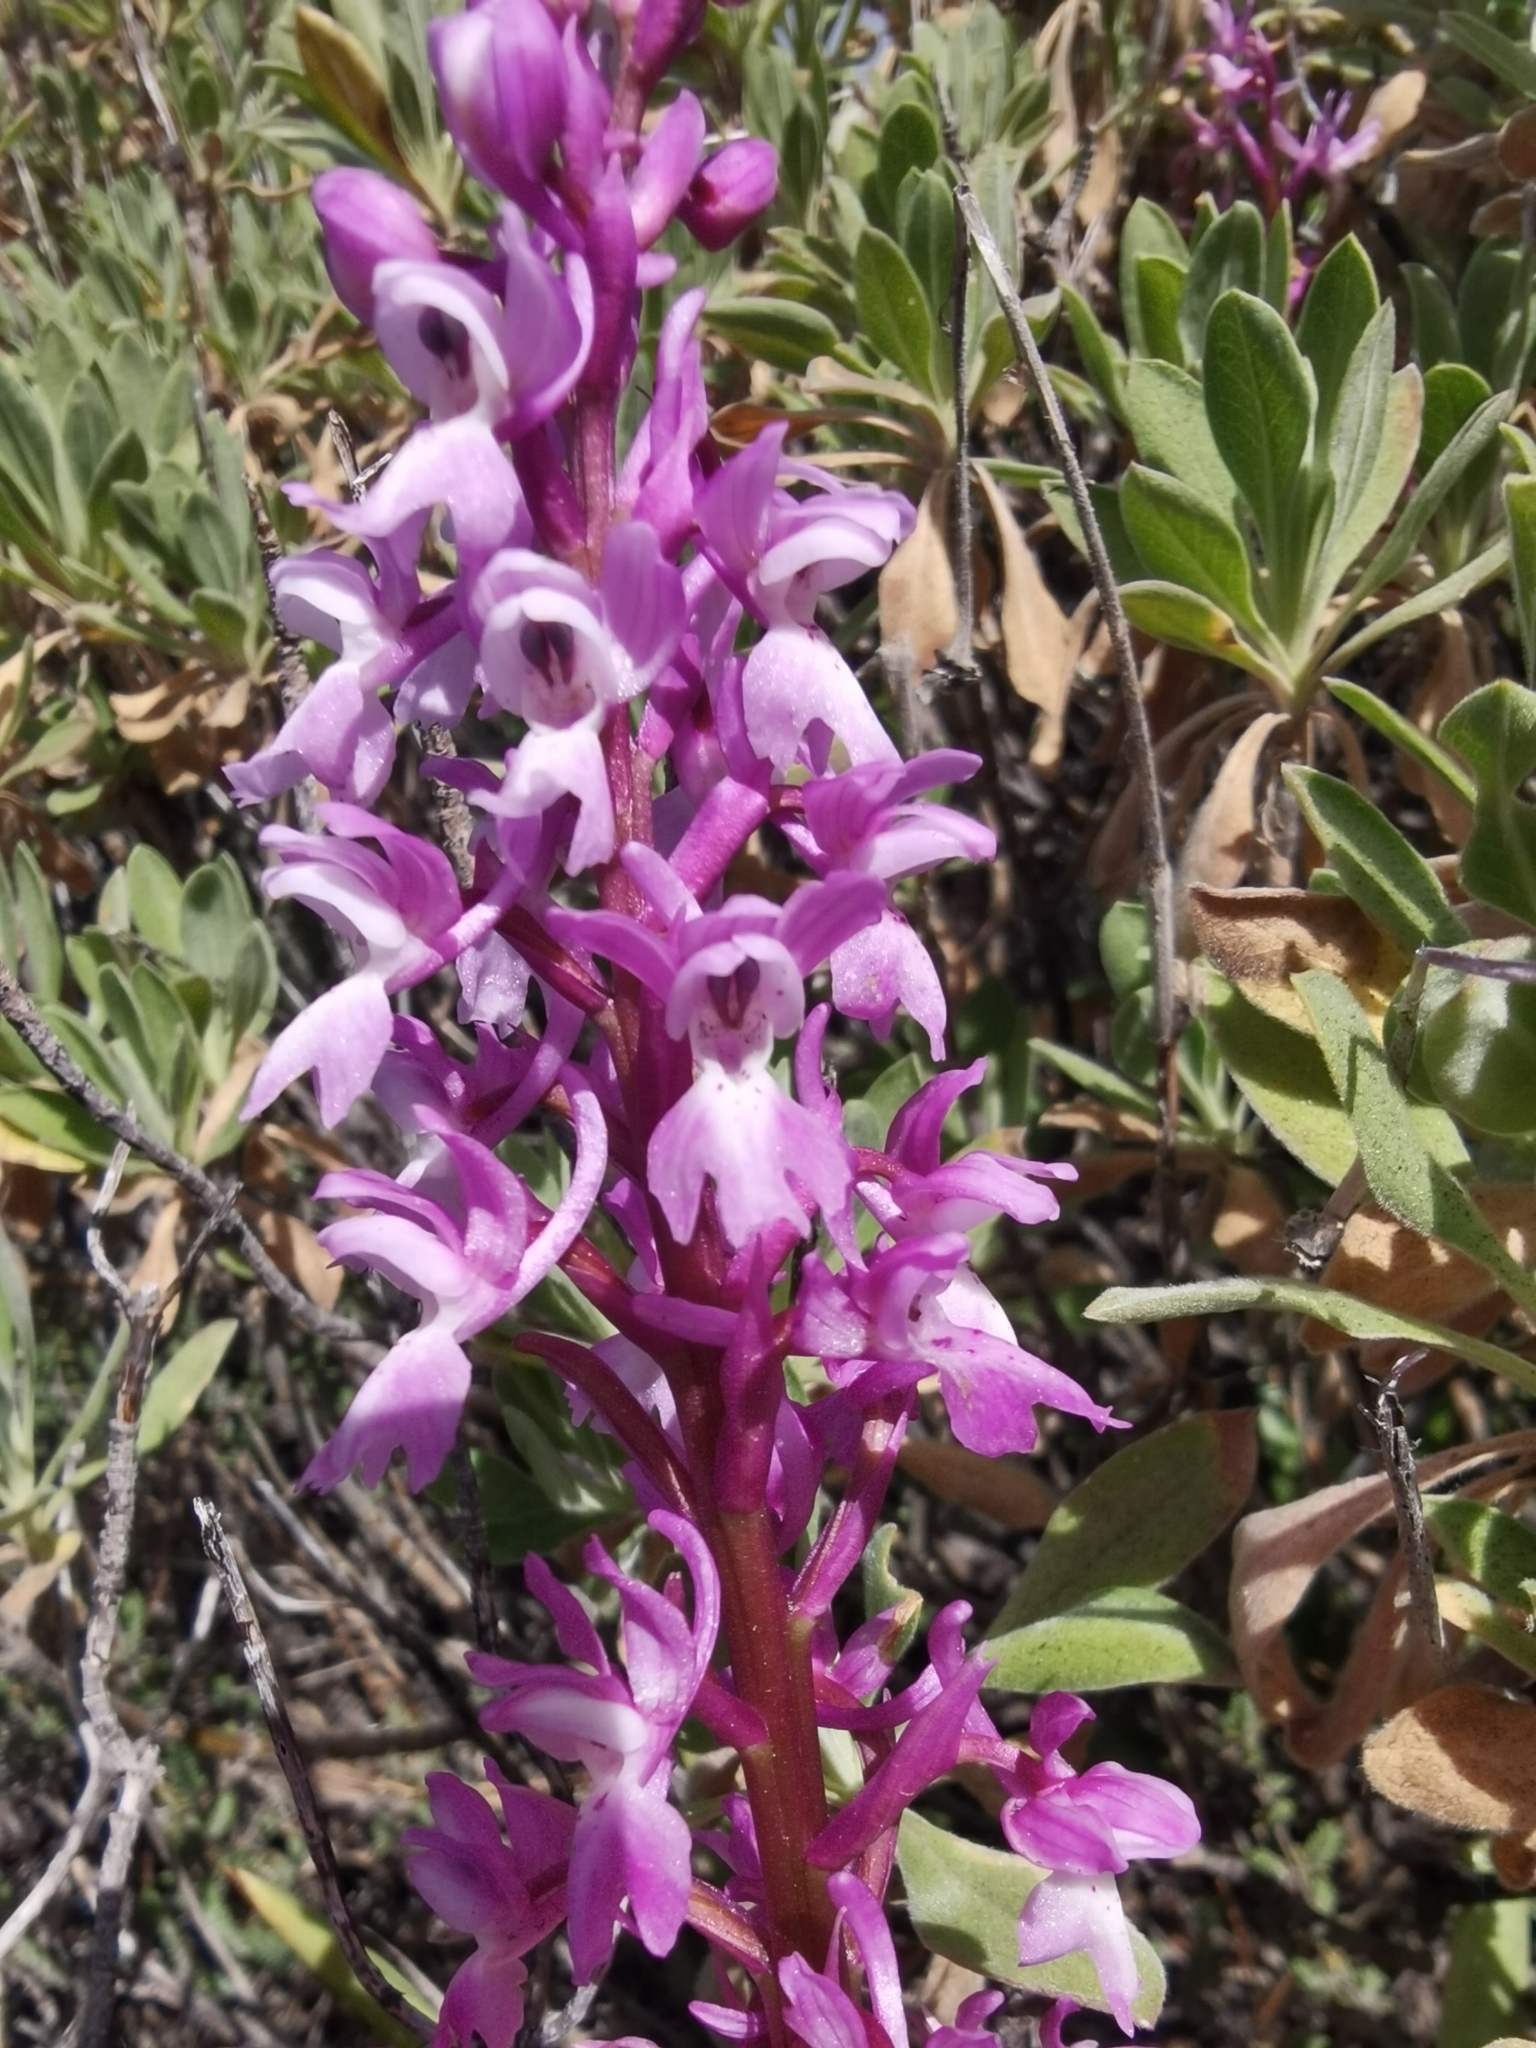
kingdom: Plantae
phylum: Tracheophyta
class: Liliopsida
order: Asparagales
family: Orchidaceae
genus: Orchis
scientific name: Orchis mascula
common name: Early-purple orchid
